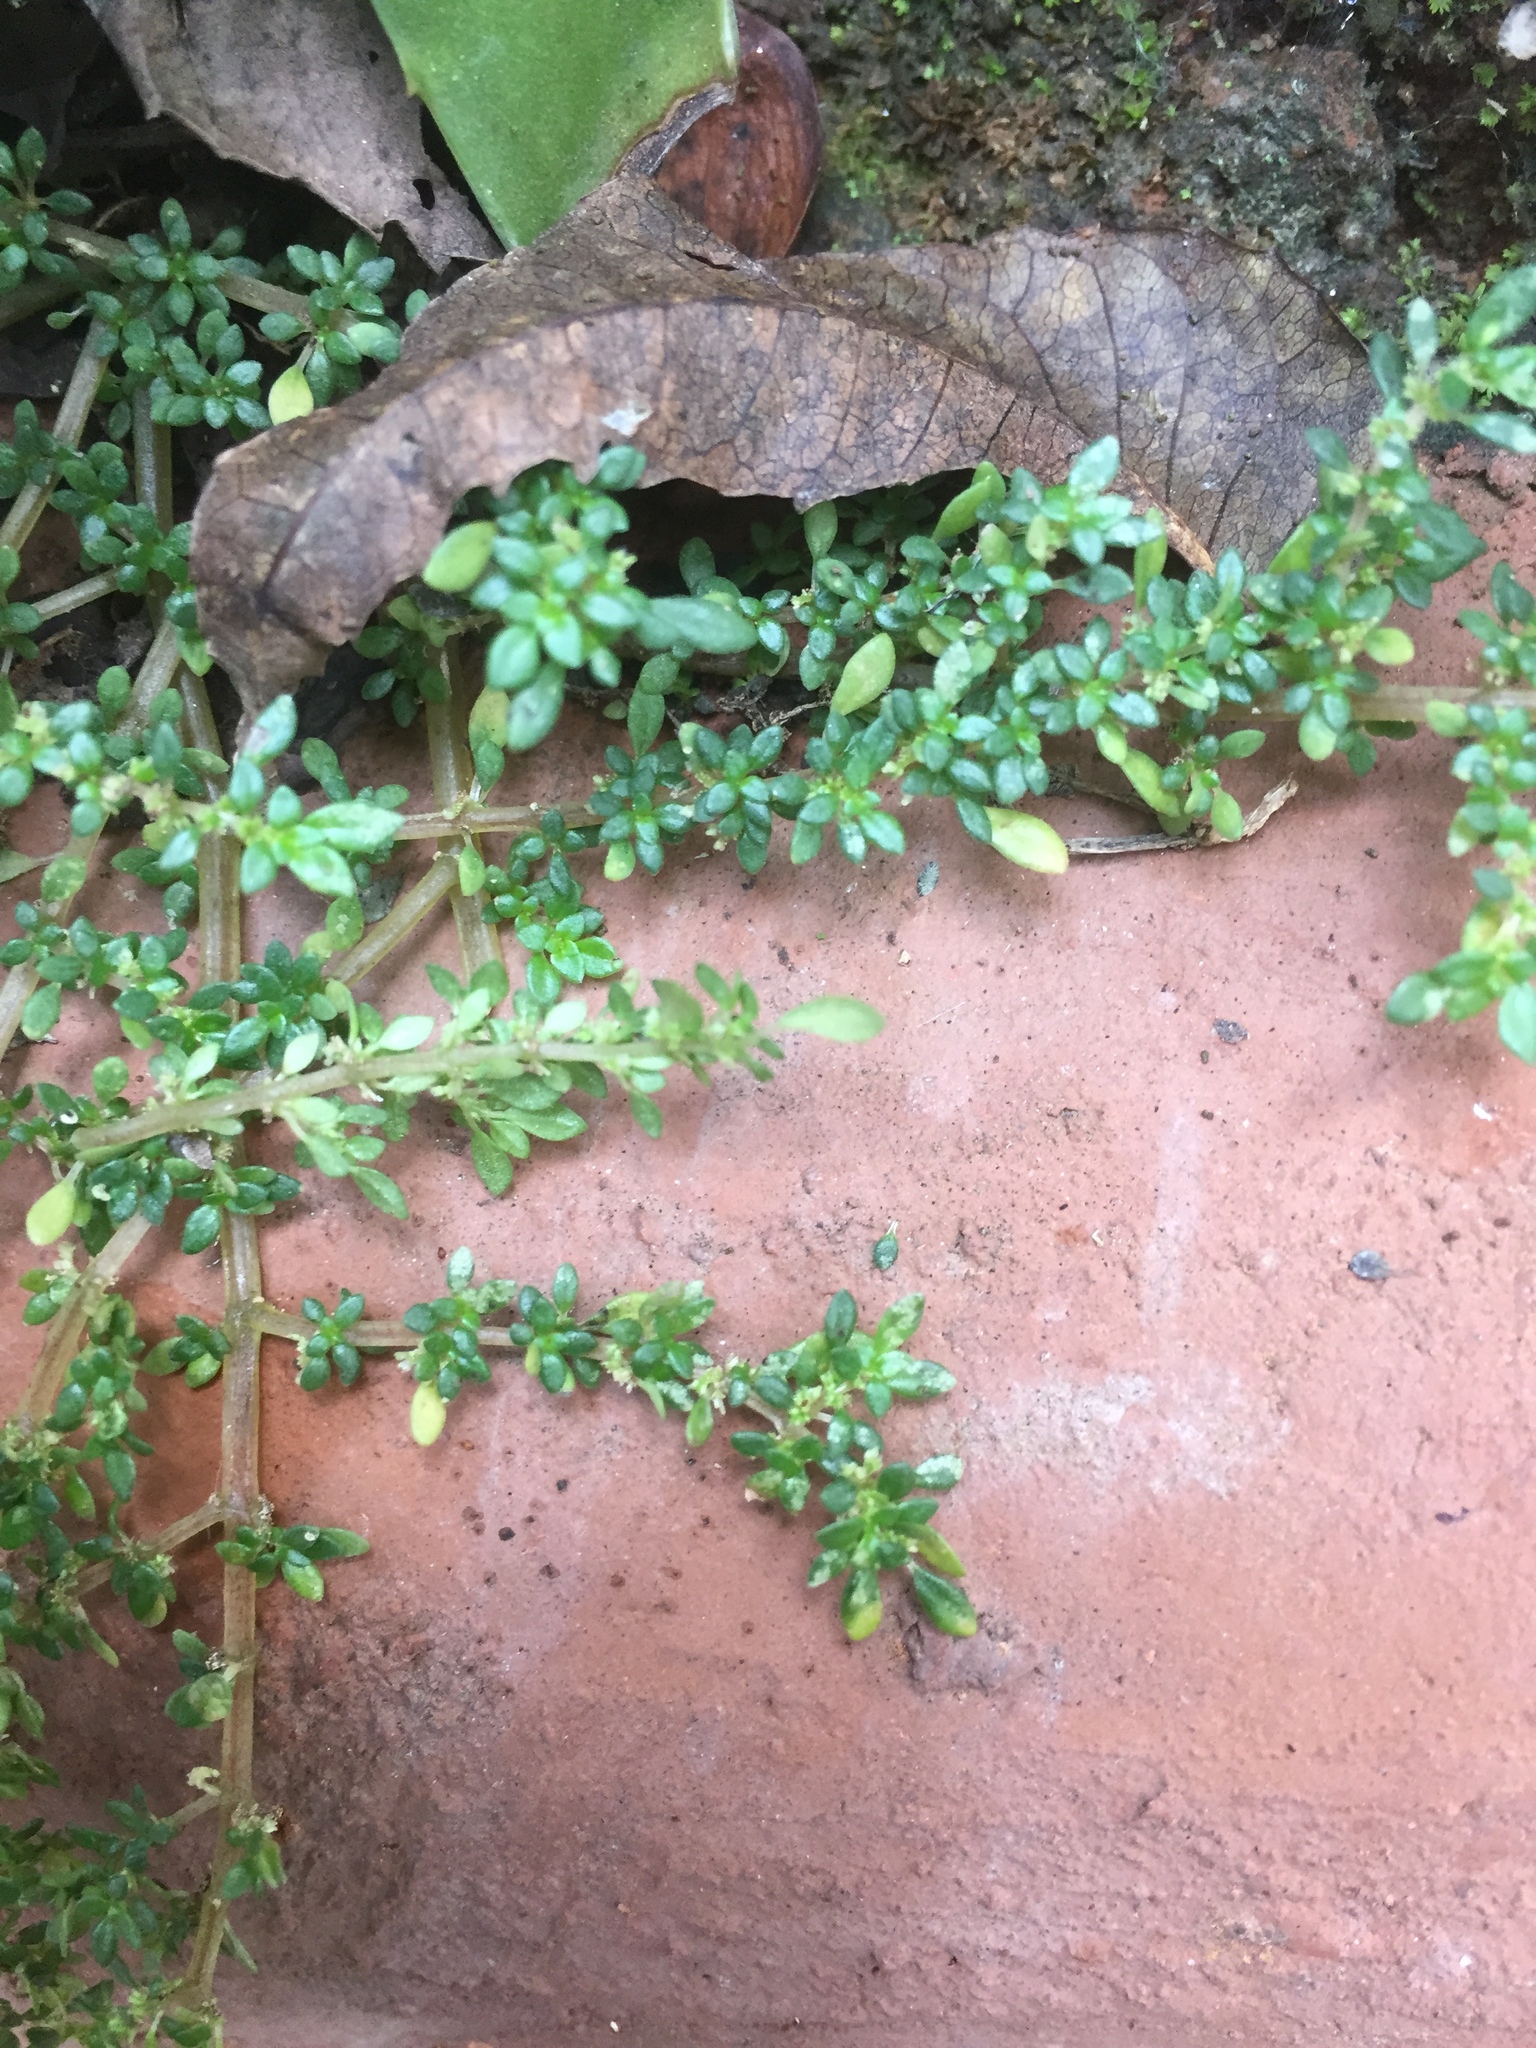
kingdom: Plantae
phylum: Tracheophyta
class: Magnoliopsida
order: Rosales
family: Urticaceae
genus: Pilea
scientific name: Pilea microphylla
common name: Artillery-plant
